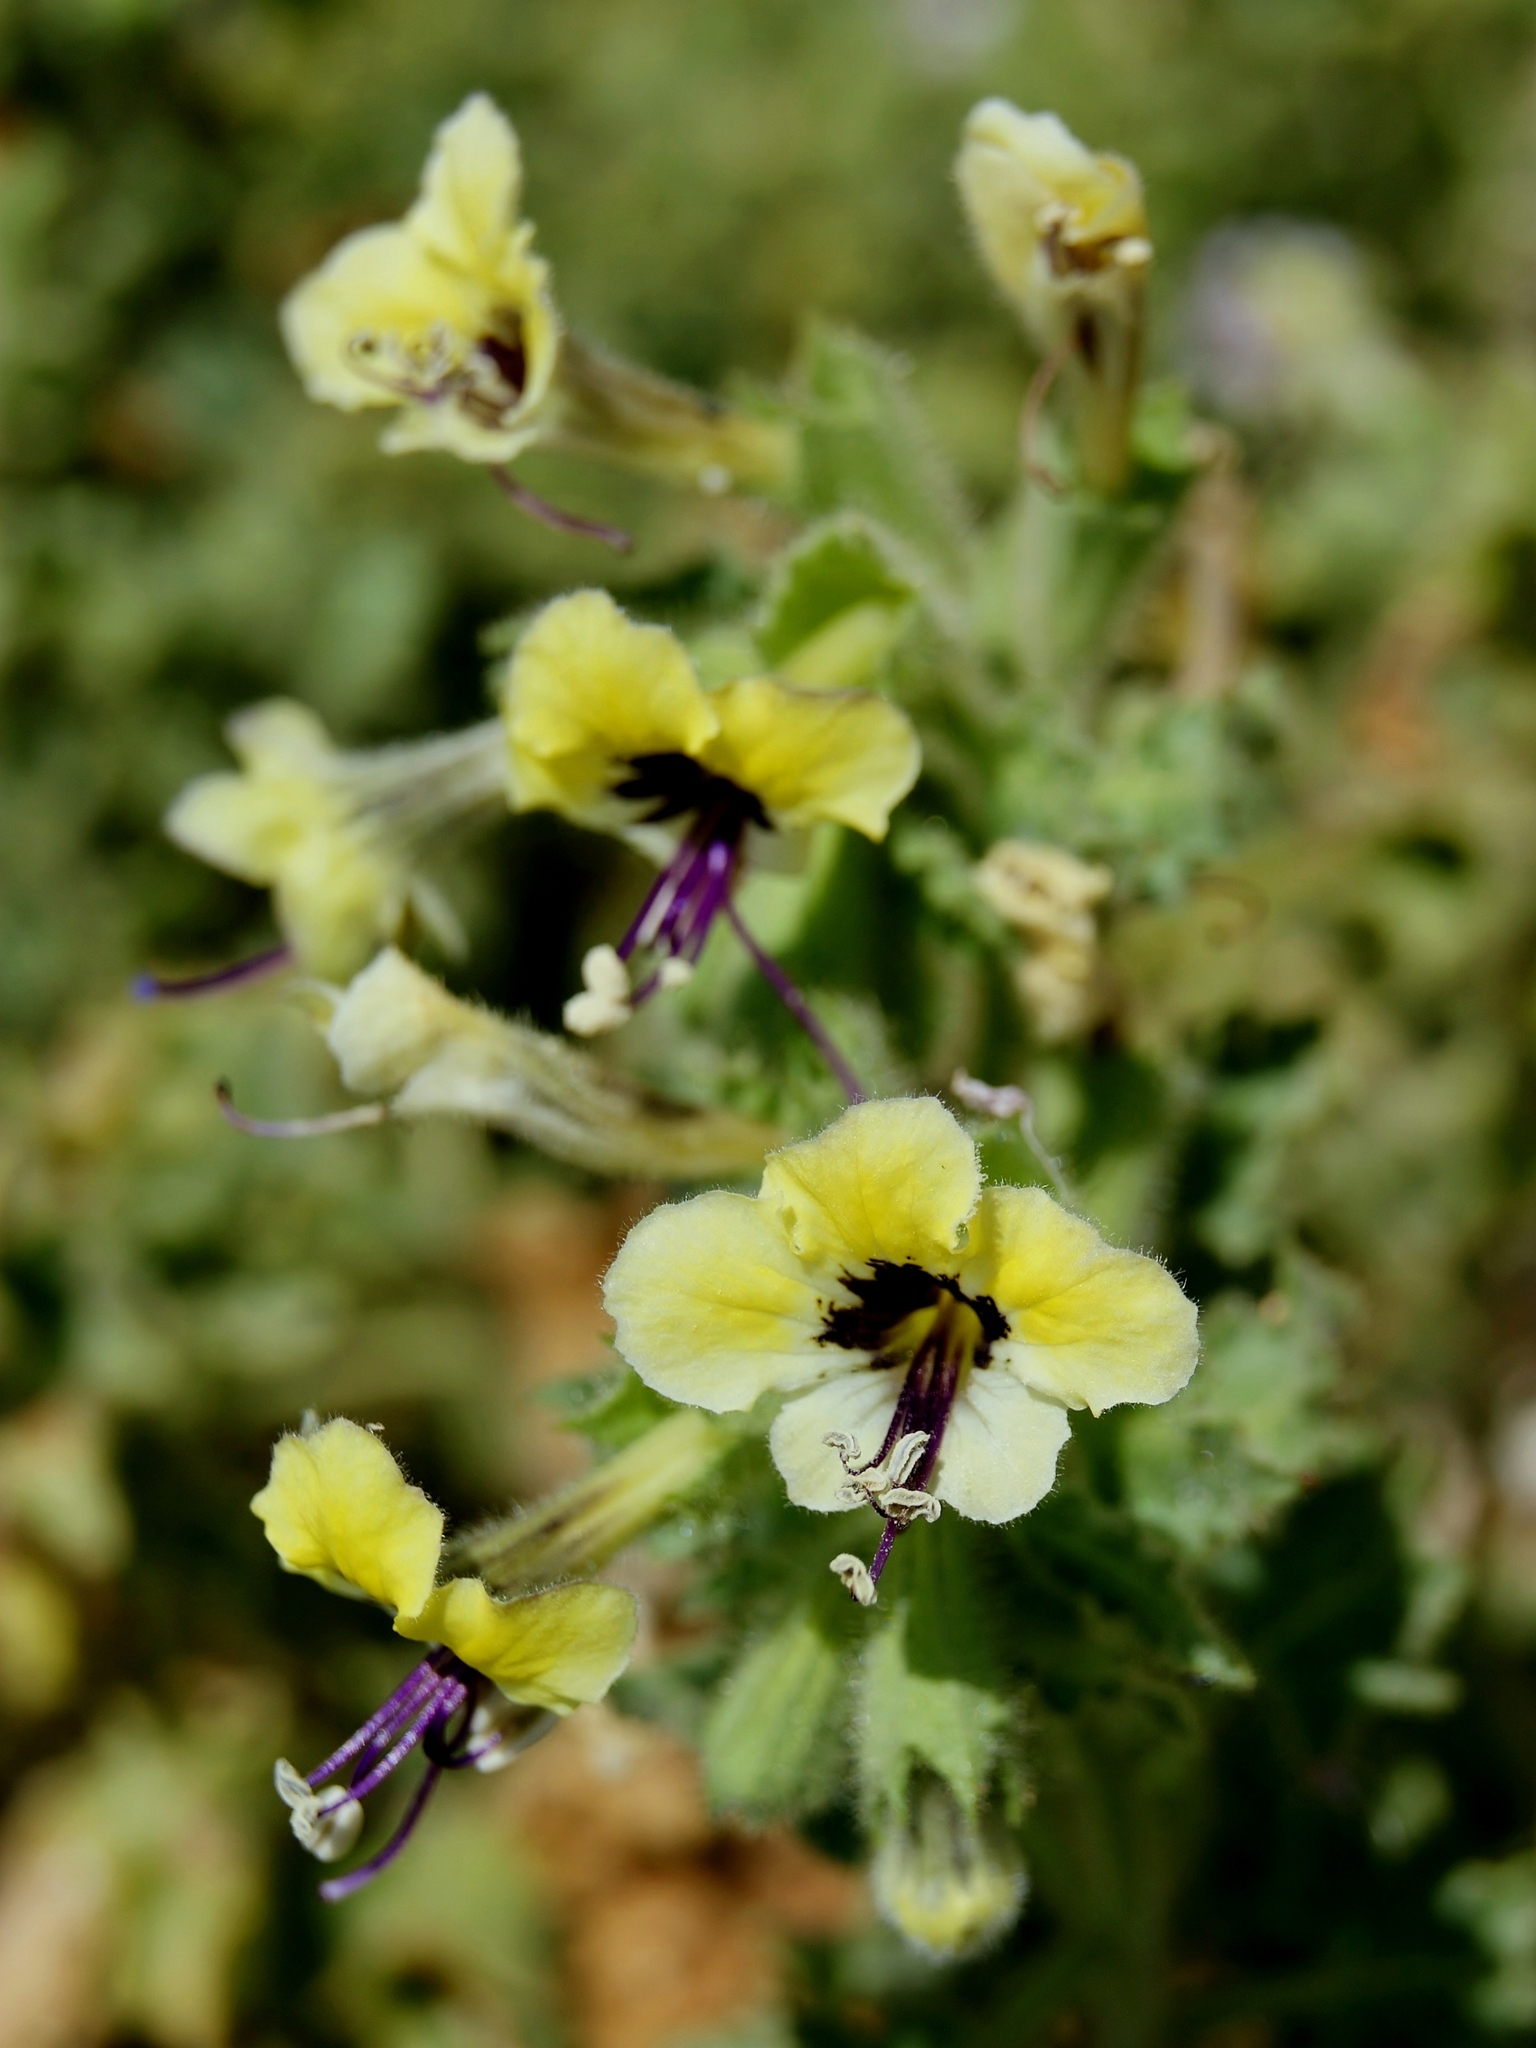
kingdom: Plantae
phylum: Tracheophyta
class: Magnoliopsida
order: Solanales
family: Solanaceae
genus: Hyoscyamus
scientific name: Hyoscyamus aureus
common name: Golden henbane
